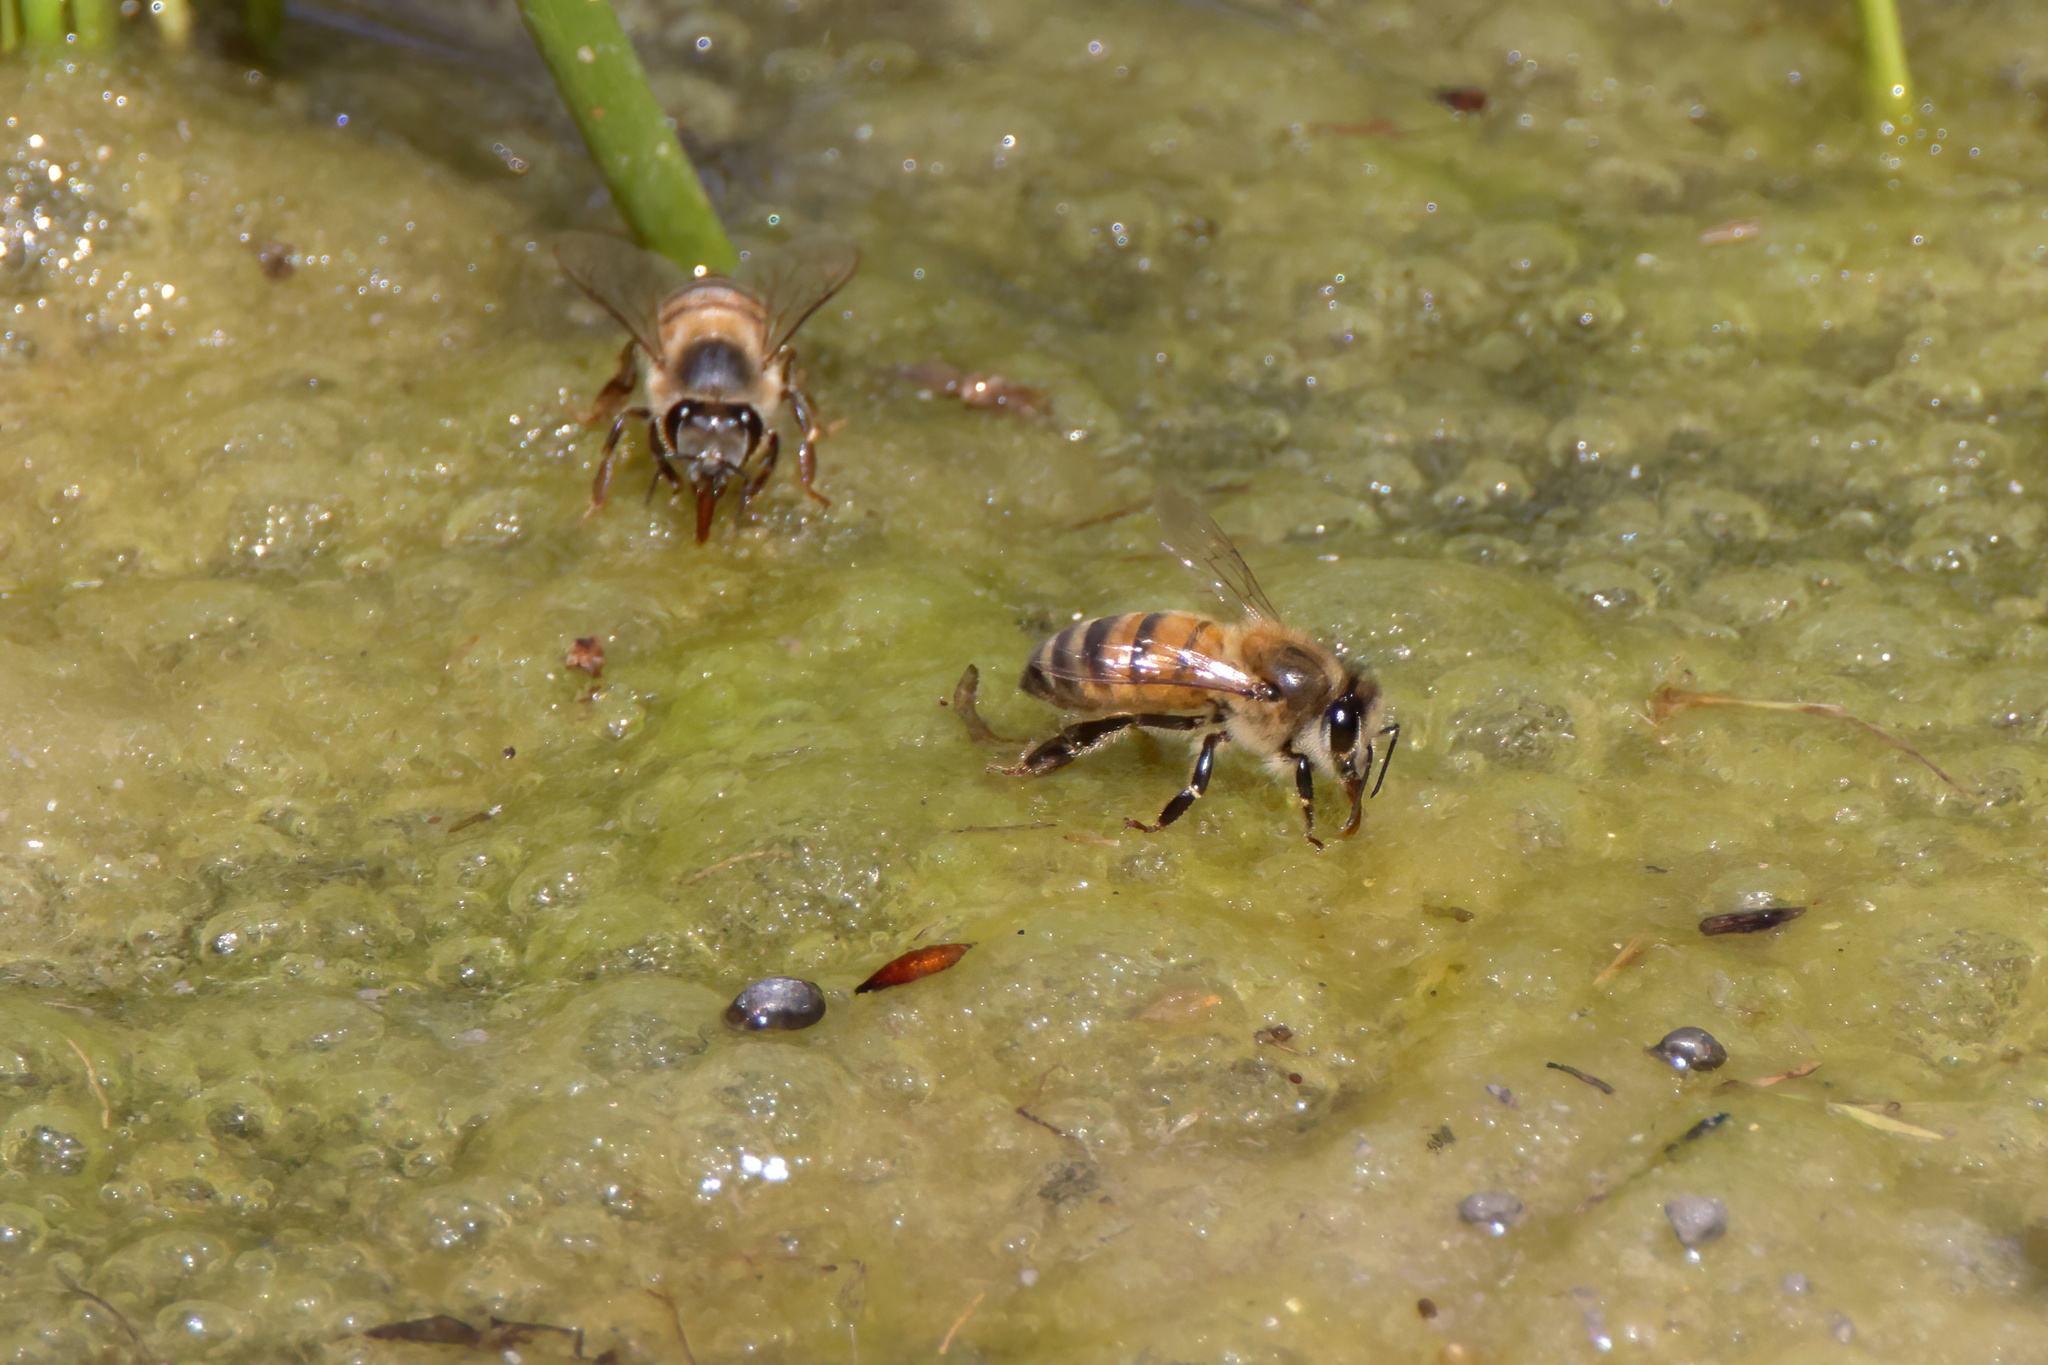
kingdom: Animalia
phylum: Arthropoda
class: Insecta
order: Hymenoptera
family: Apidae
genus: Apis
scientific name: Apis mellifera
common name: Honey bee
